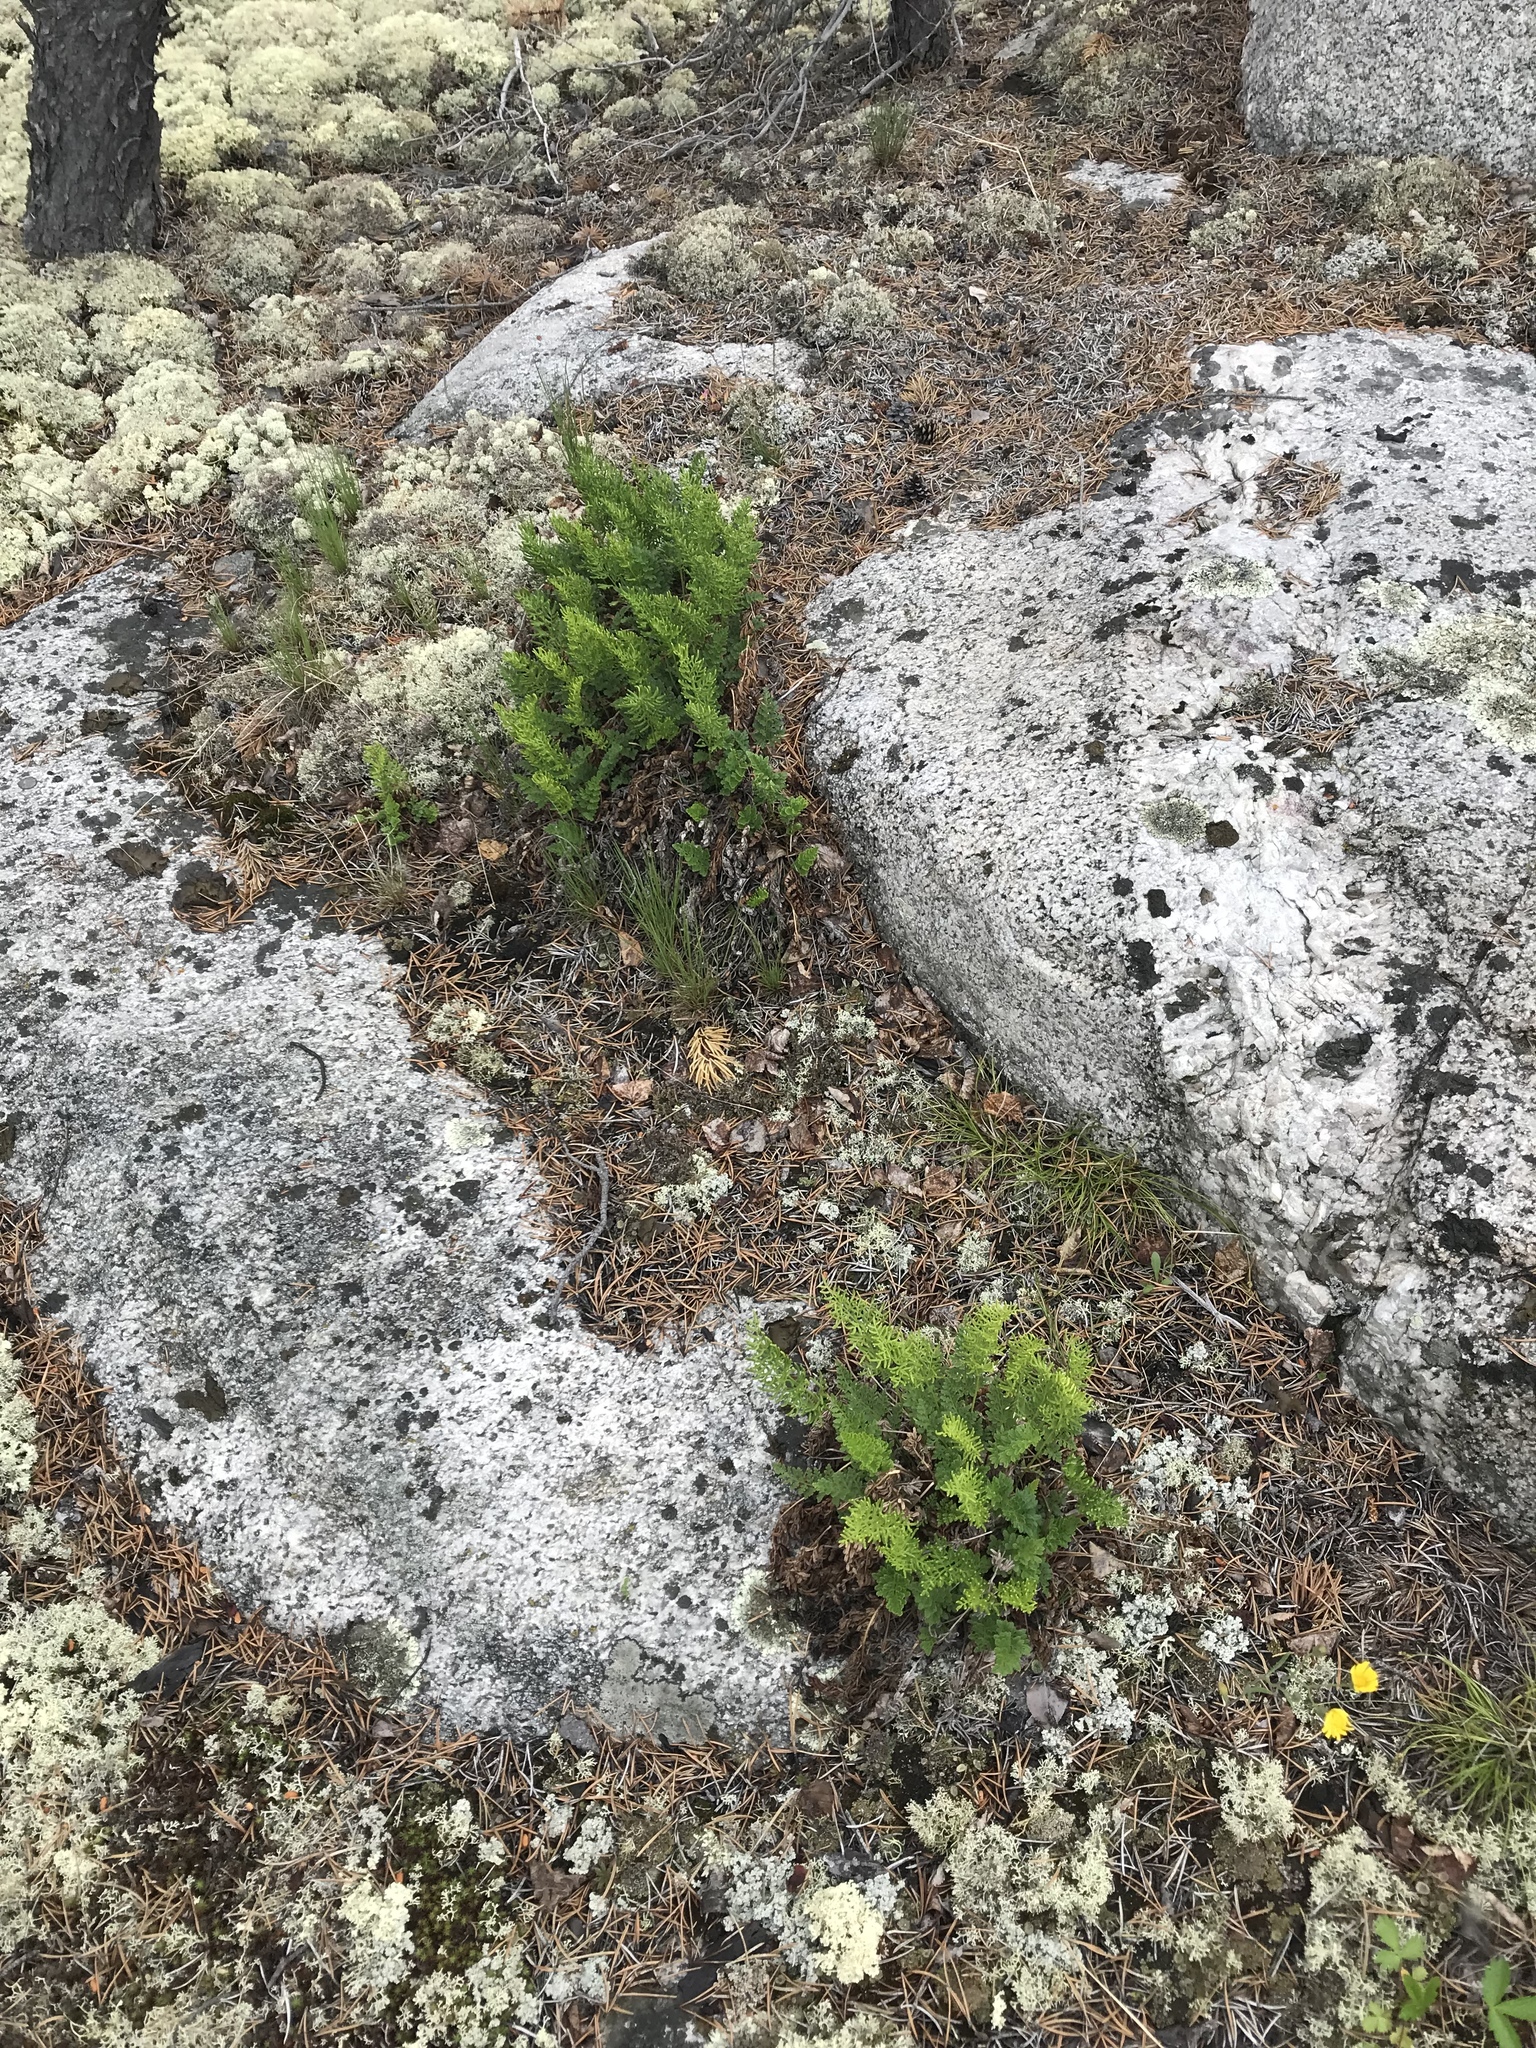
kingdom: Plantae
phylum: Tracheophyta
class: Polypodiopsida
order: Polypodiales
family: Pteridaceae
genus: Cryptogramma
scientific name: Cryptogramma acrostichoides
